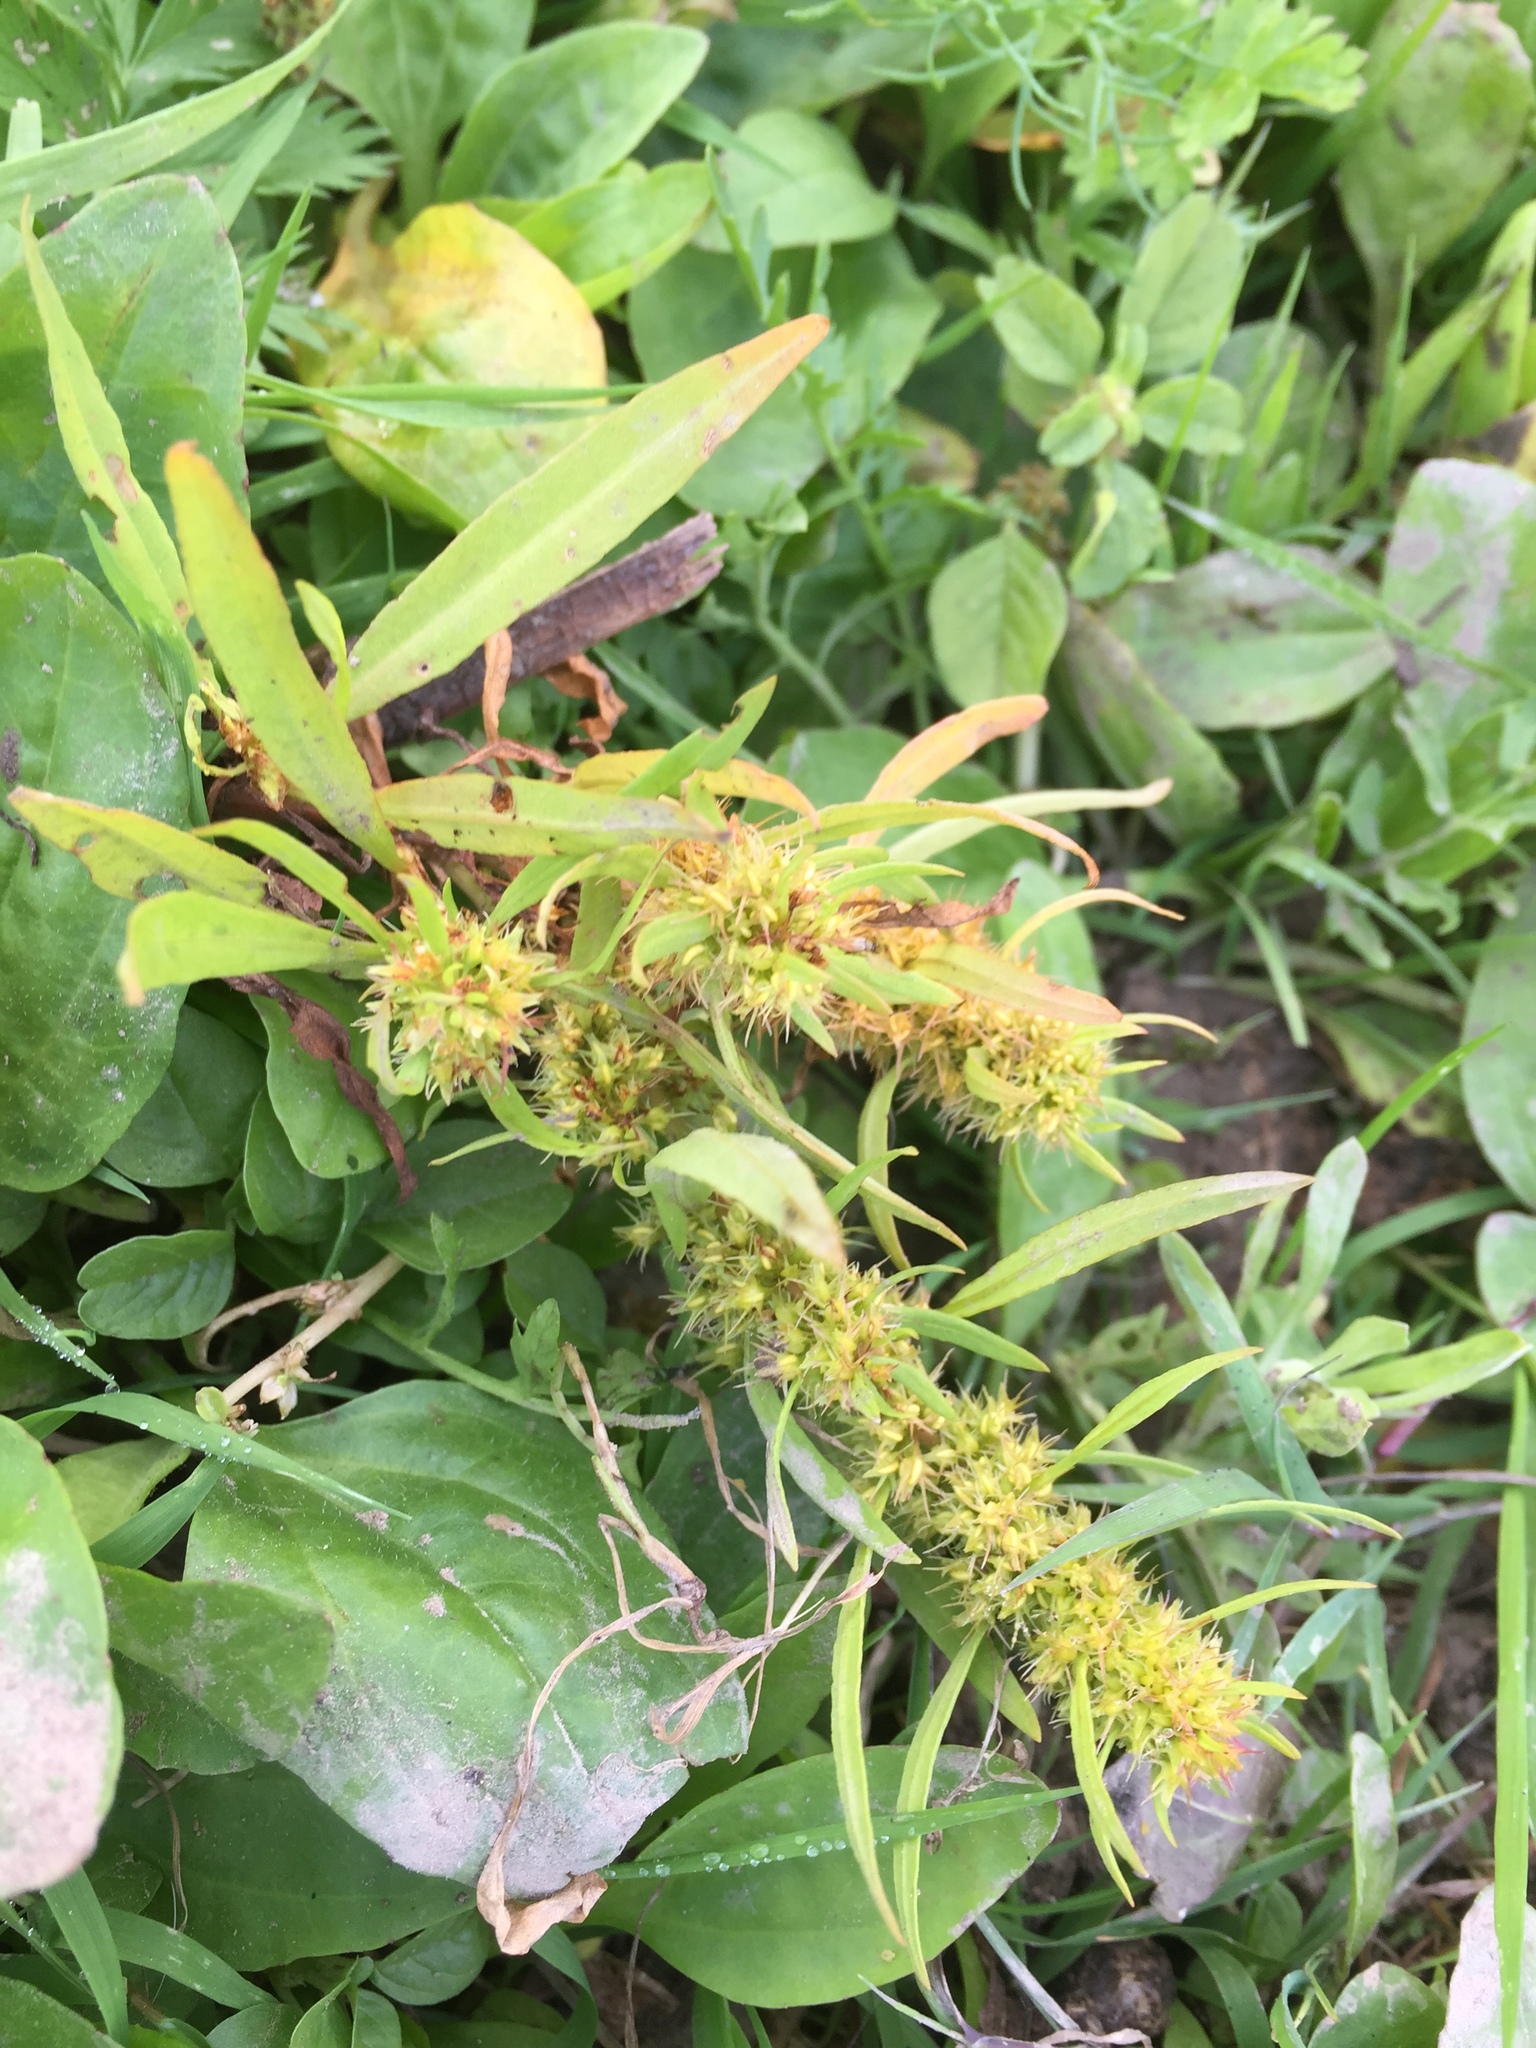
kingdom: Plantae
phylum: Tracheophyta
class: Magnoliopsida
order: Caryophyllales
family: Polygonaceae
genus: Rumex
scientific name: Rumex maritimus
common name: Golden dock
